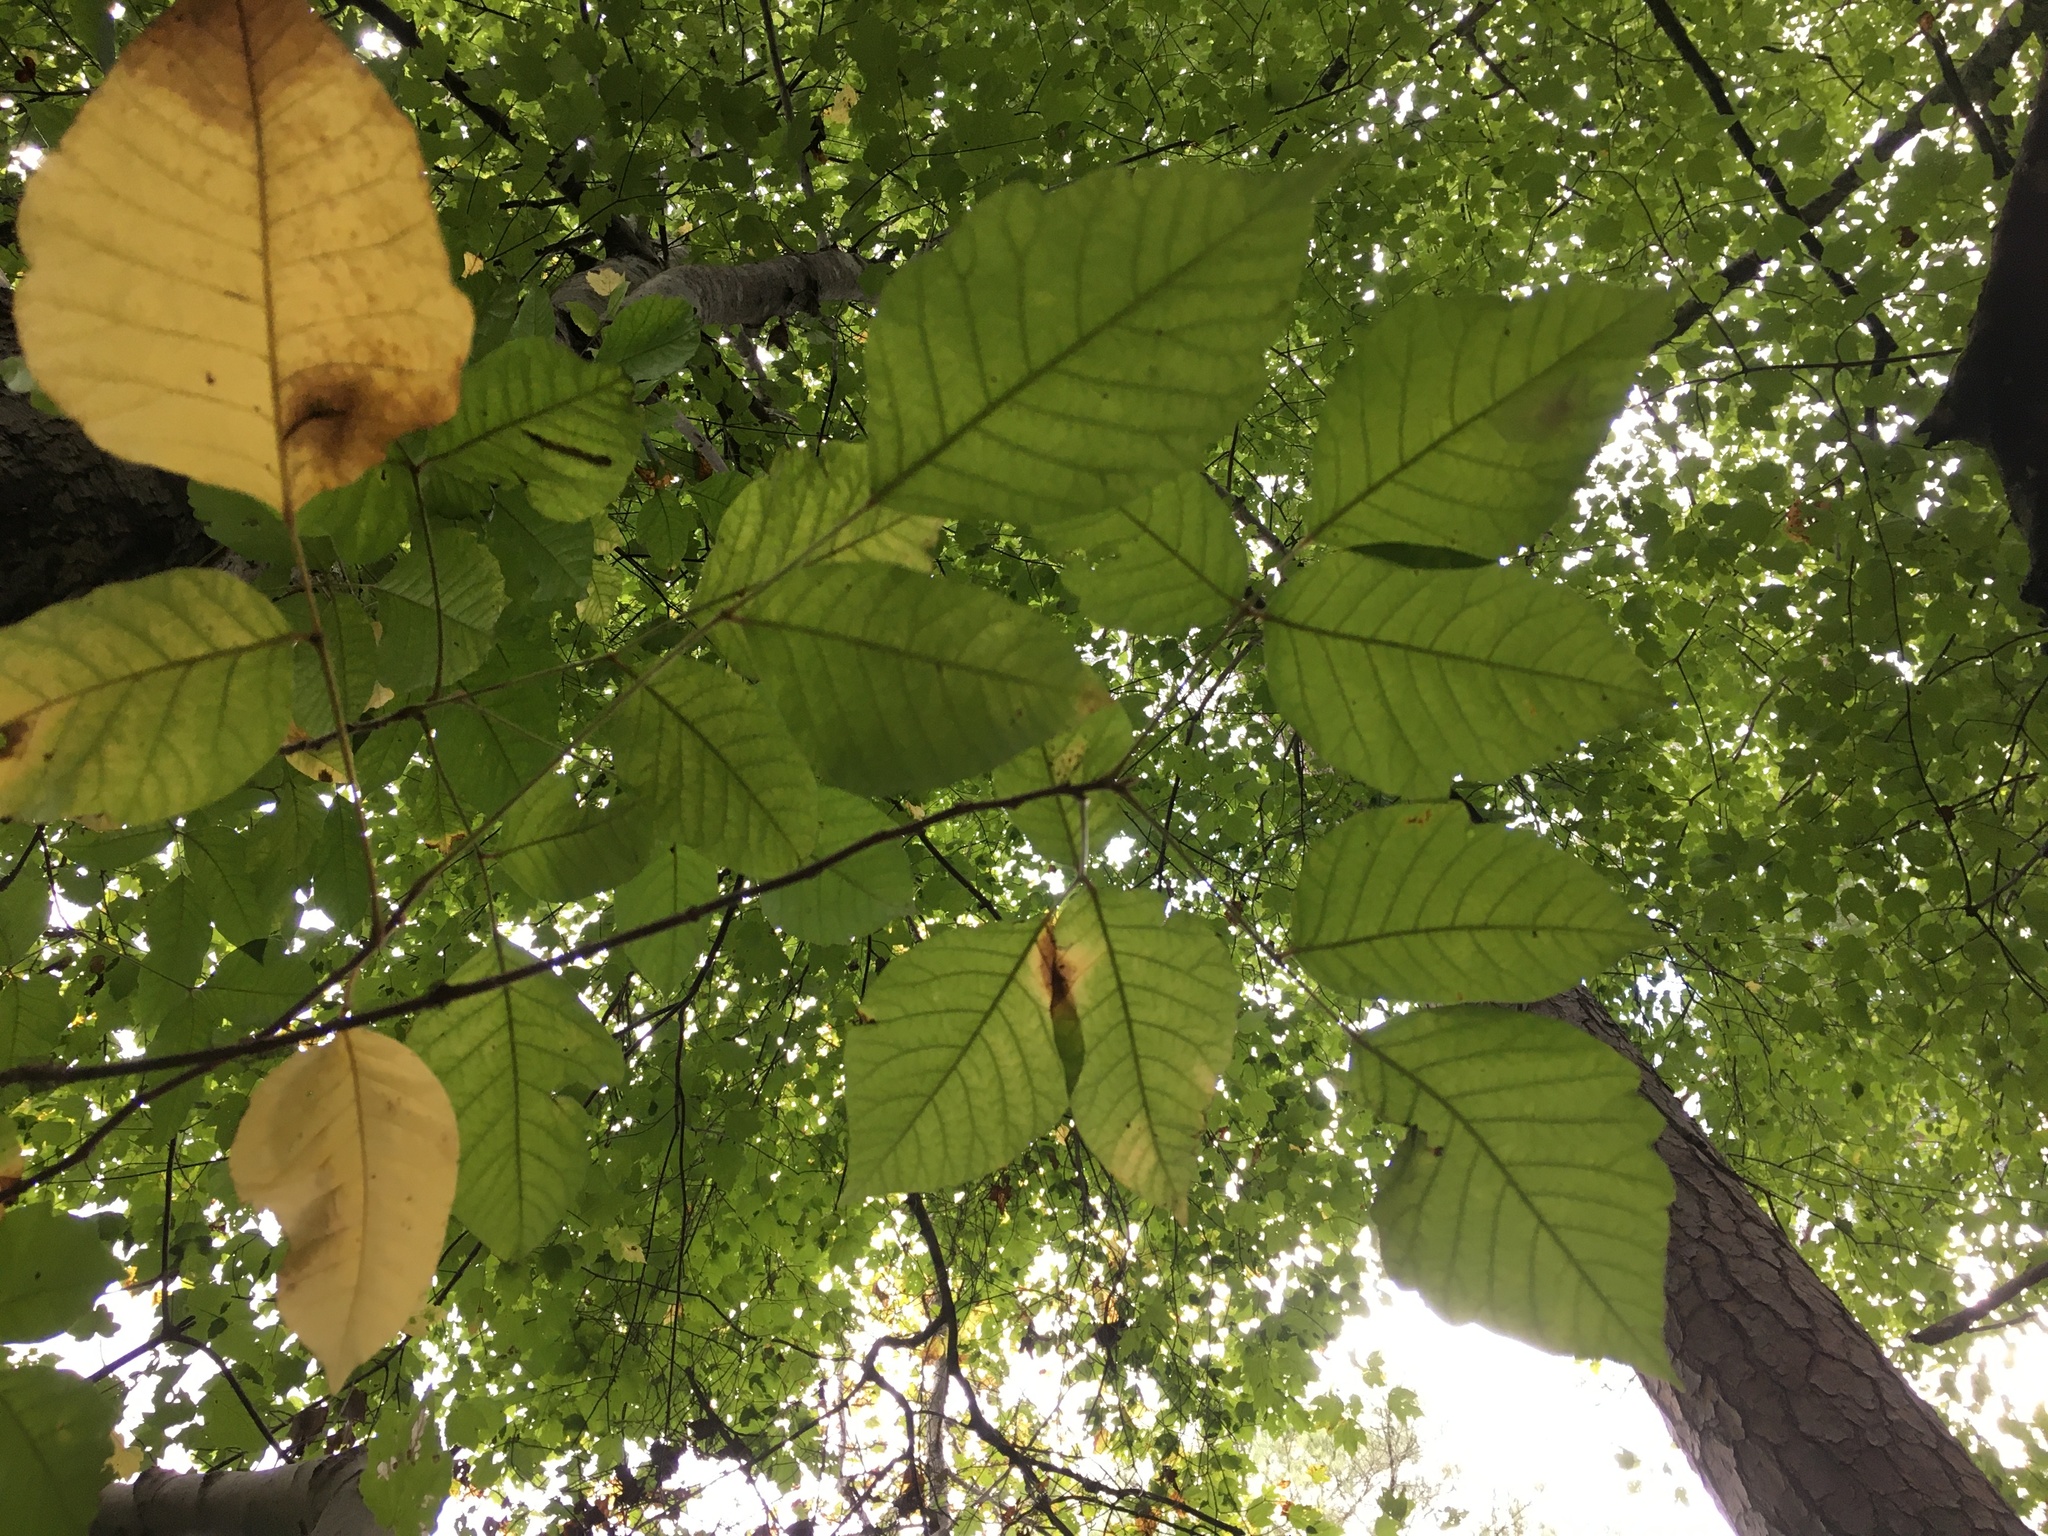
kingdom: Plantae
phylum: Tracheophyta
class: Magnoliopsida
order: Sapindales
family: Anacardiaceae
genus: Toxicodendron
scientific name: Toxicodendron radicans
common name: Poison ivy
